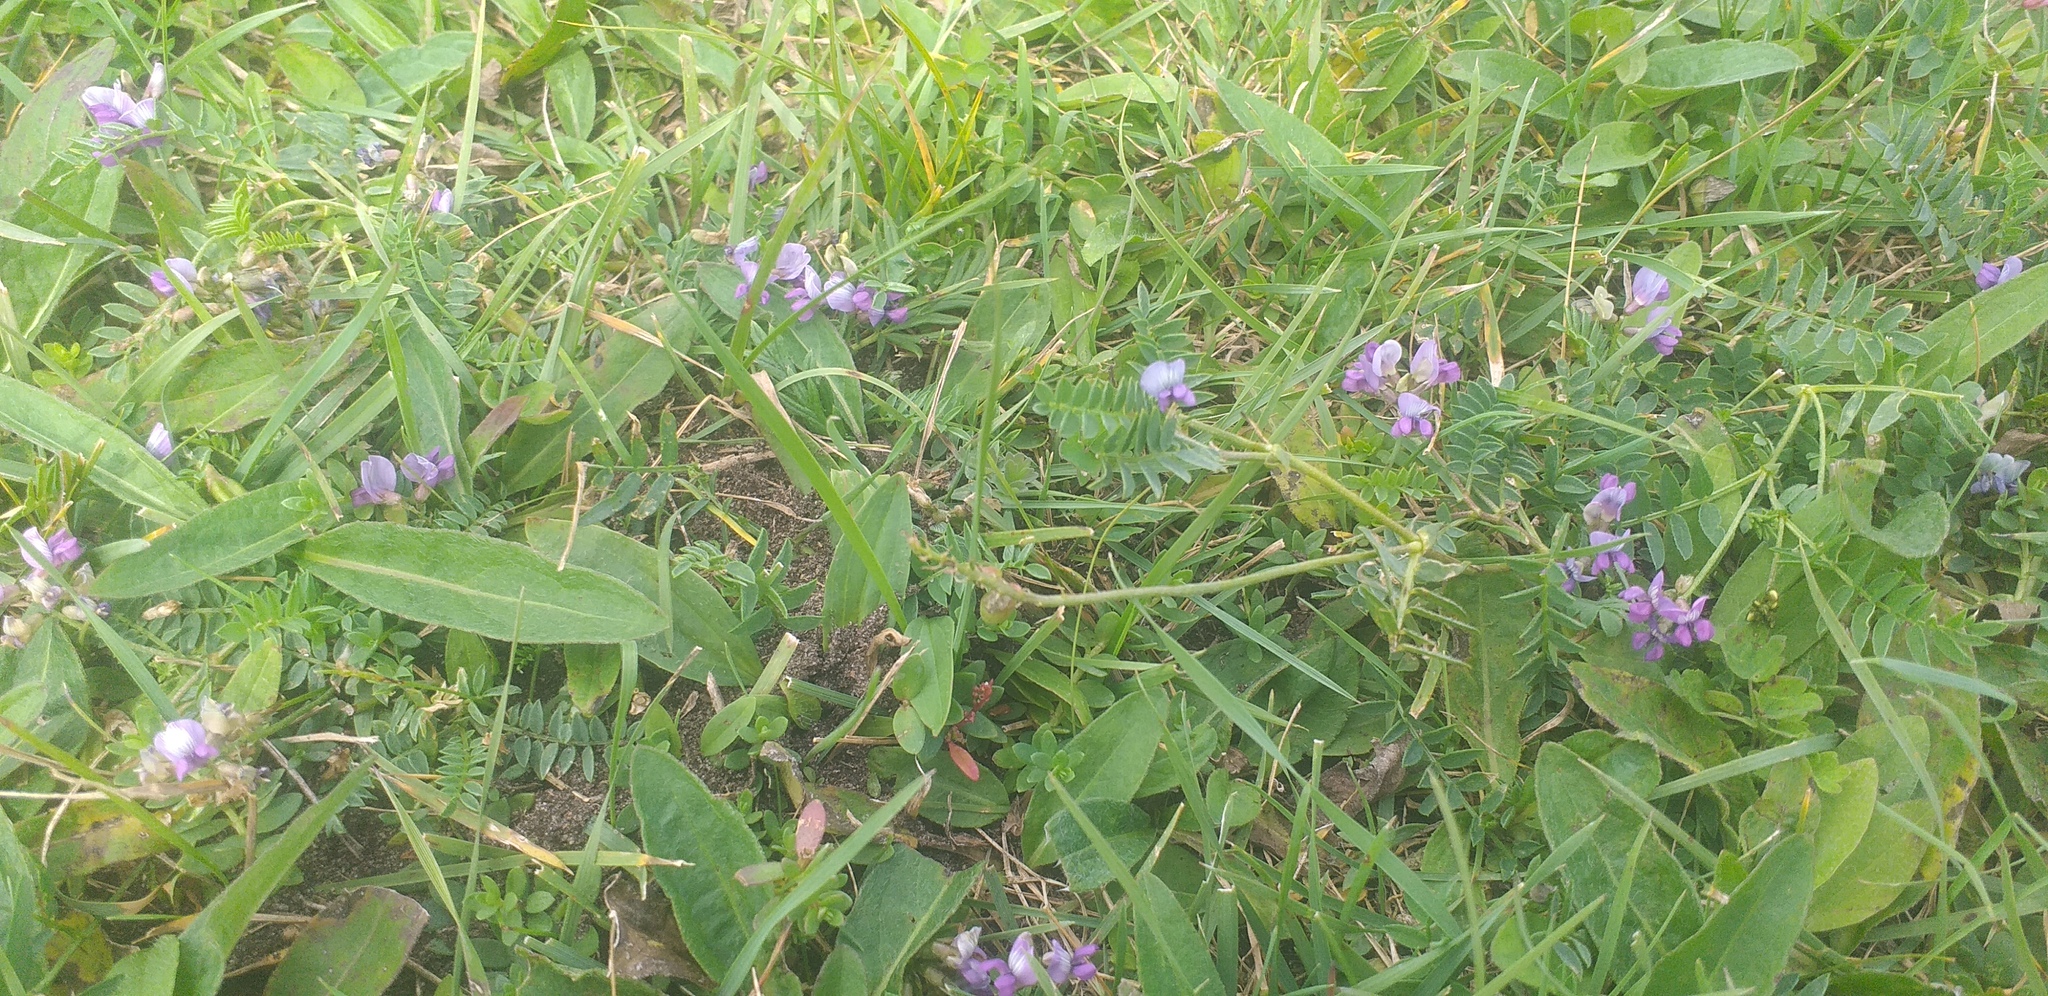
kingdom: Plantae
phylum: Tracheophyta
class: Magnoliopsida
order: Fabales
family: Fabaceae
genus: Astragalus
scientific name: Astragalus tibetanus
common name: Tibet milkvetch
